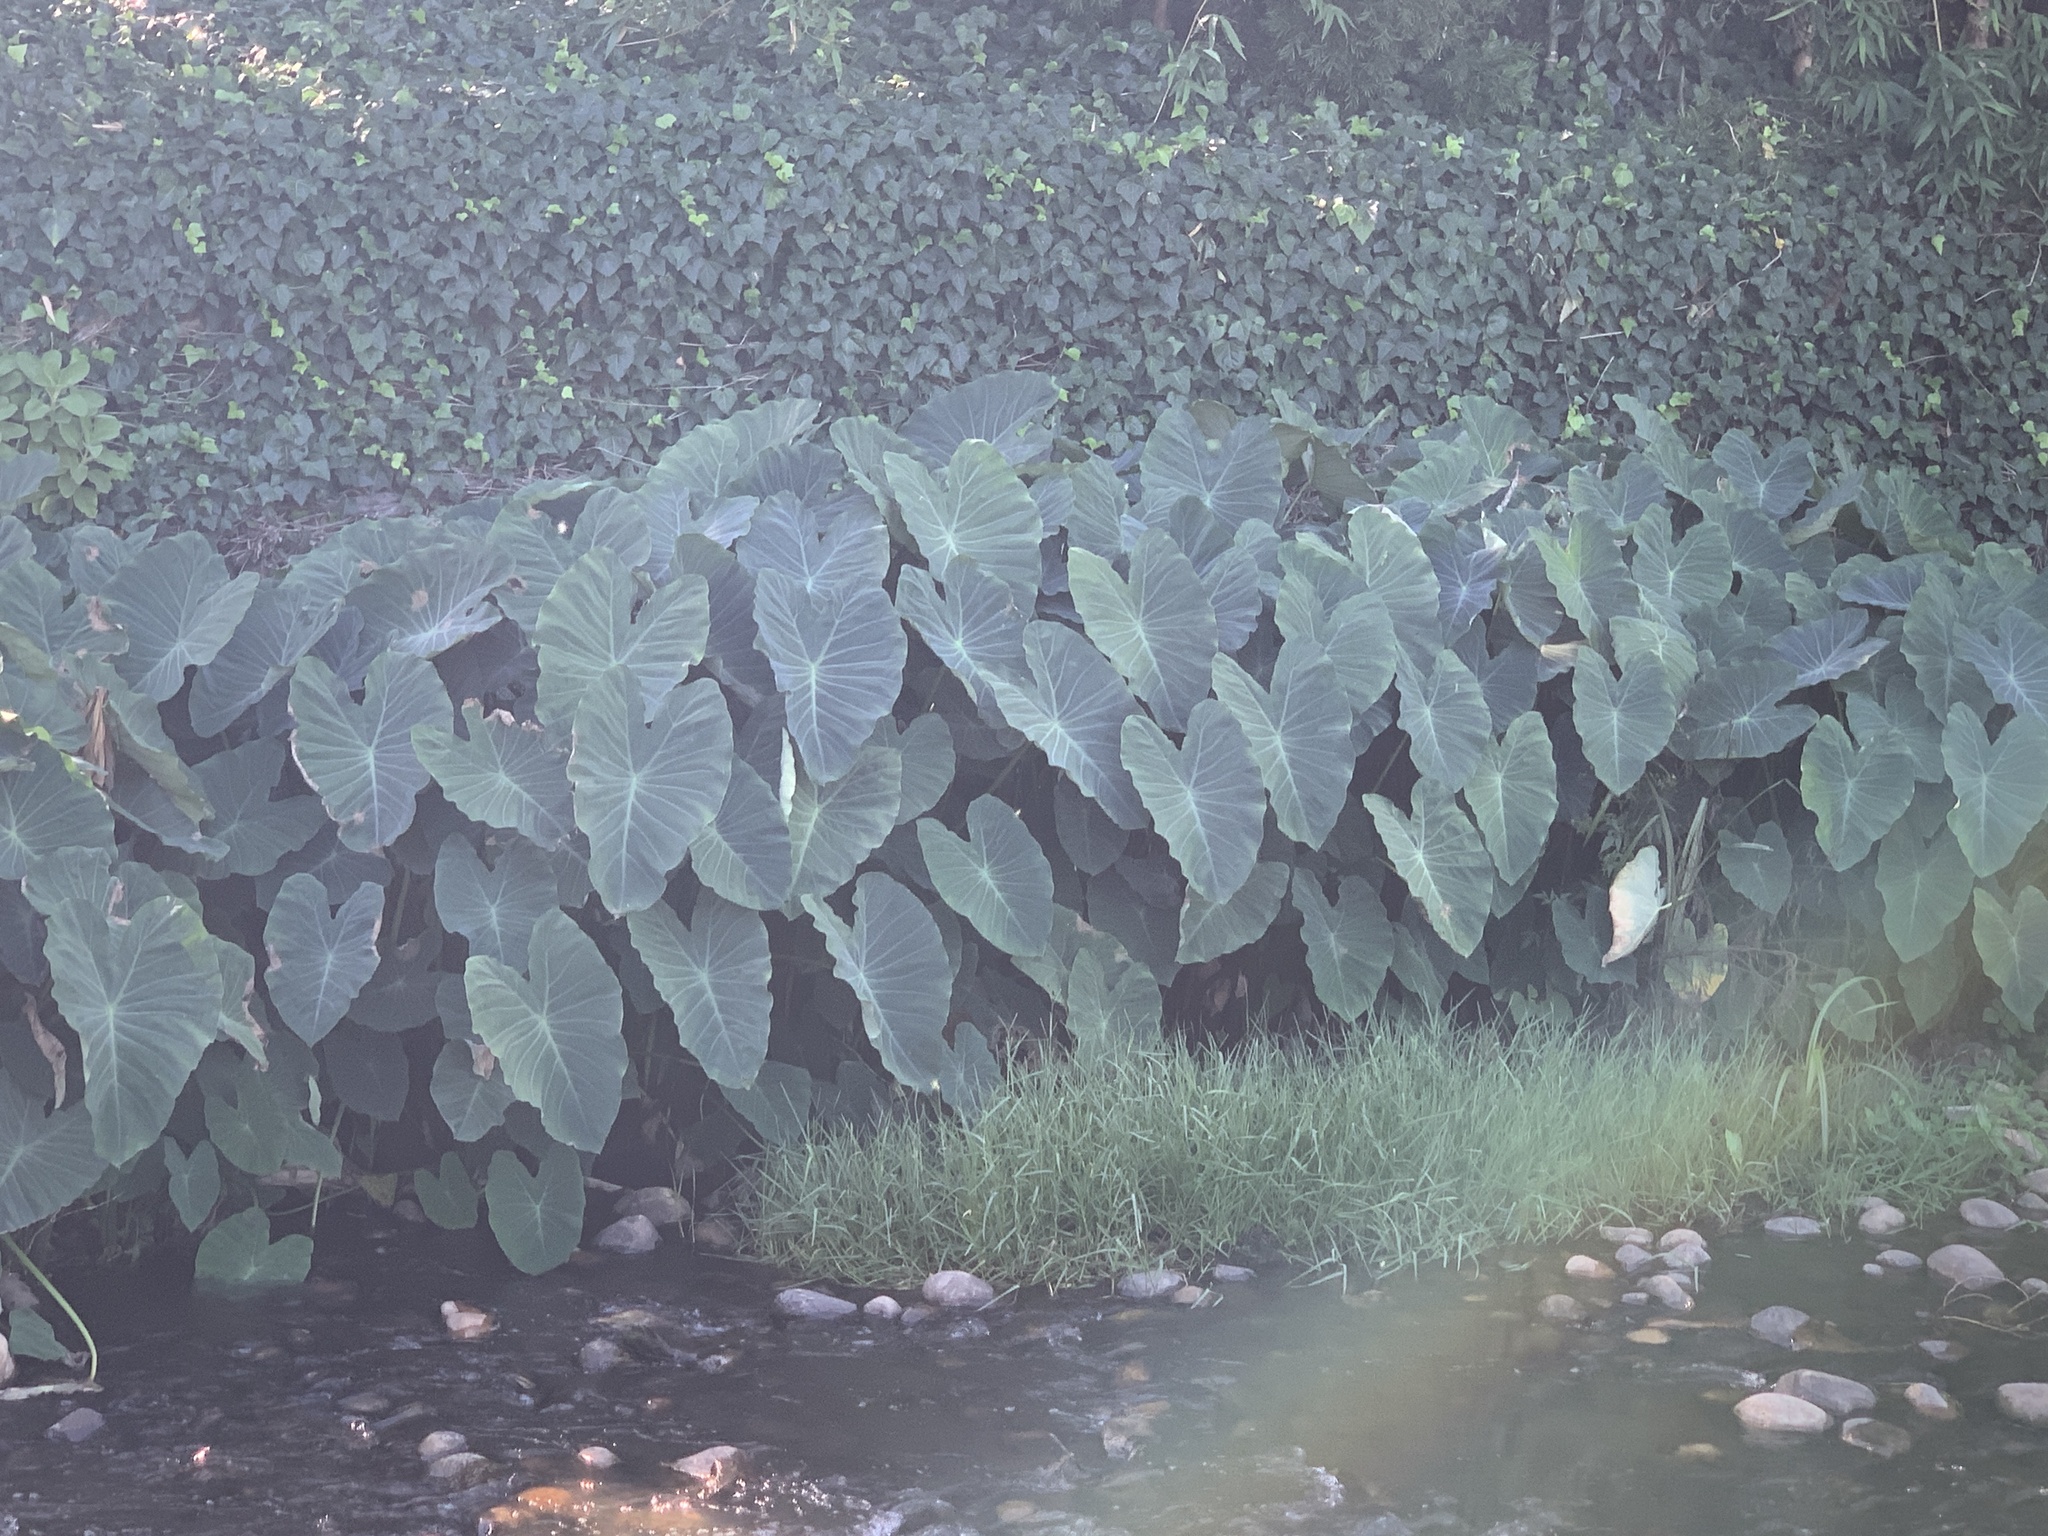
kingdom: Plantae
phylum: Tracheophyta
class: Liliopsida
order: Alismatales
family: Araceae
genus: Colocasia
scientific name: Colocasia esculenta
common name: Taro
